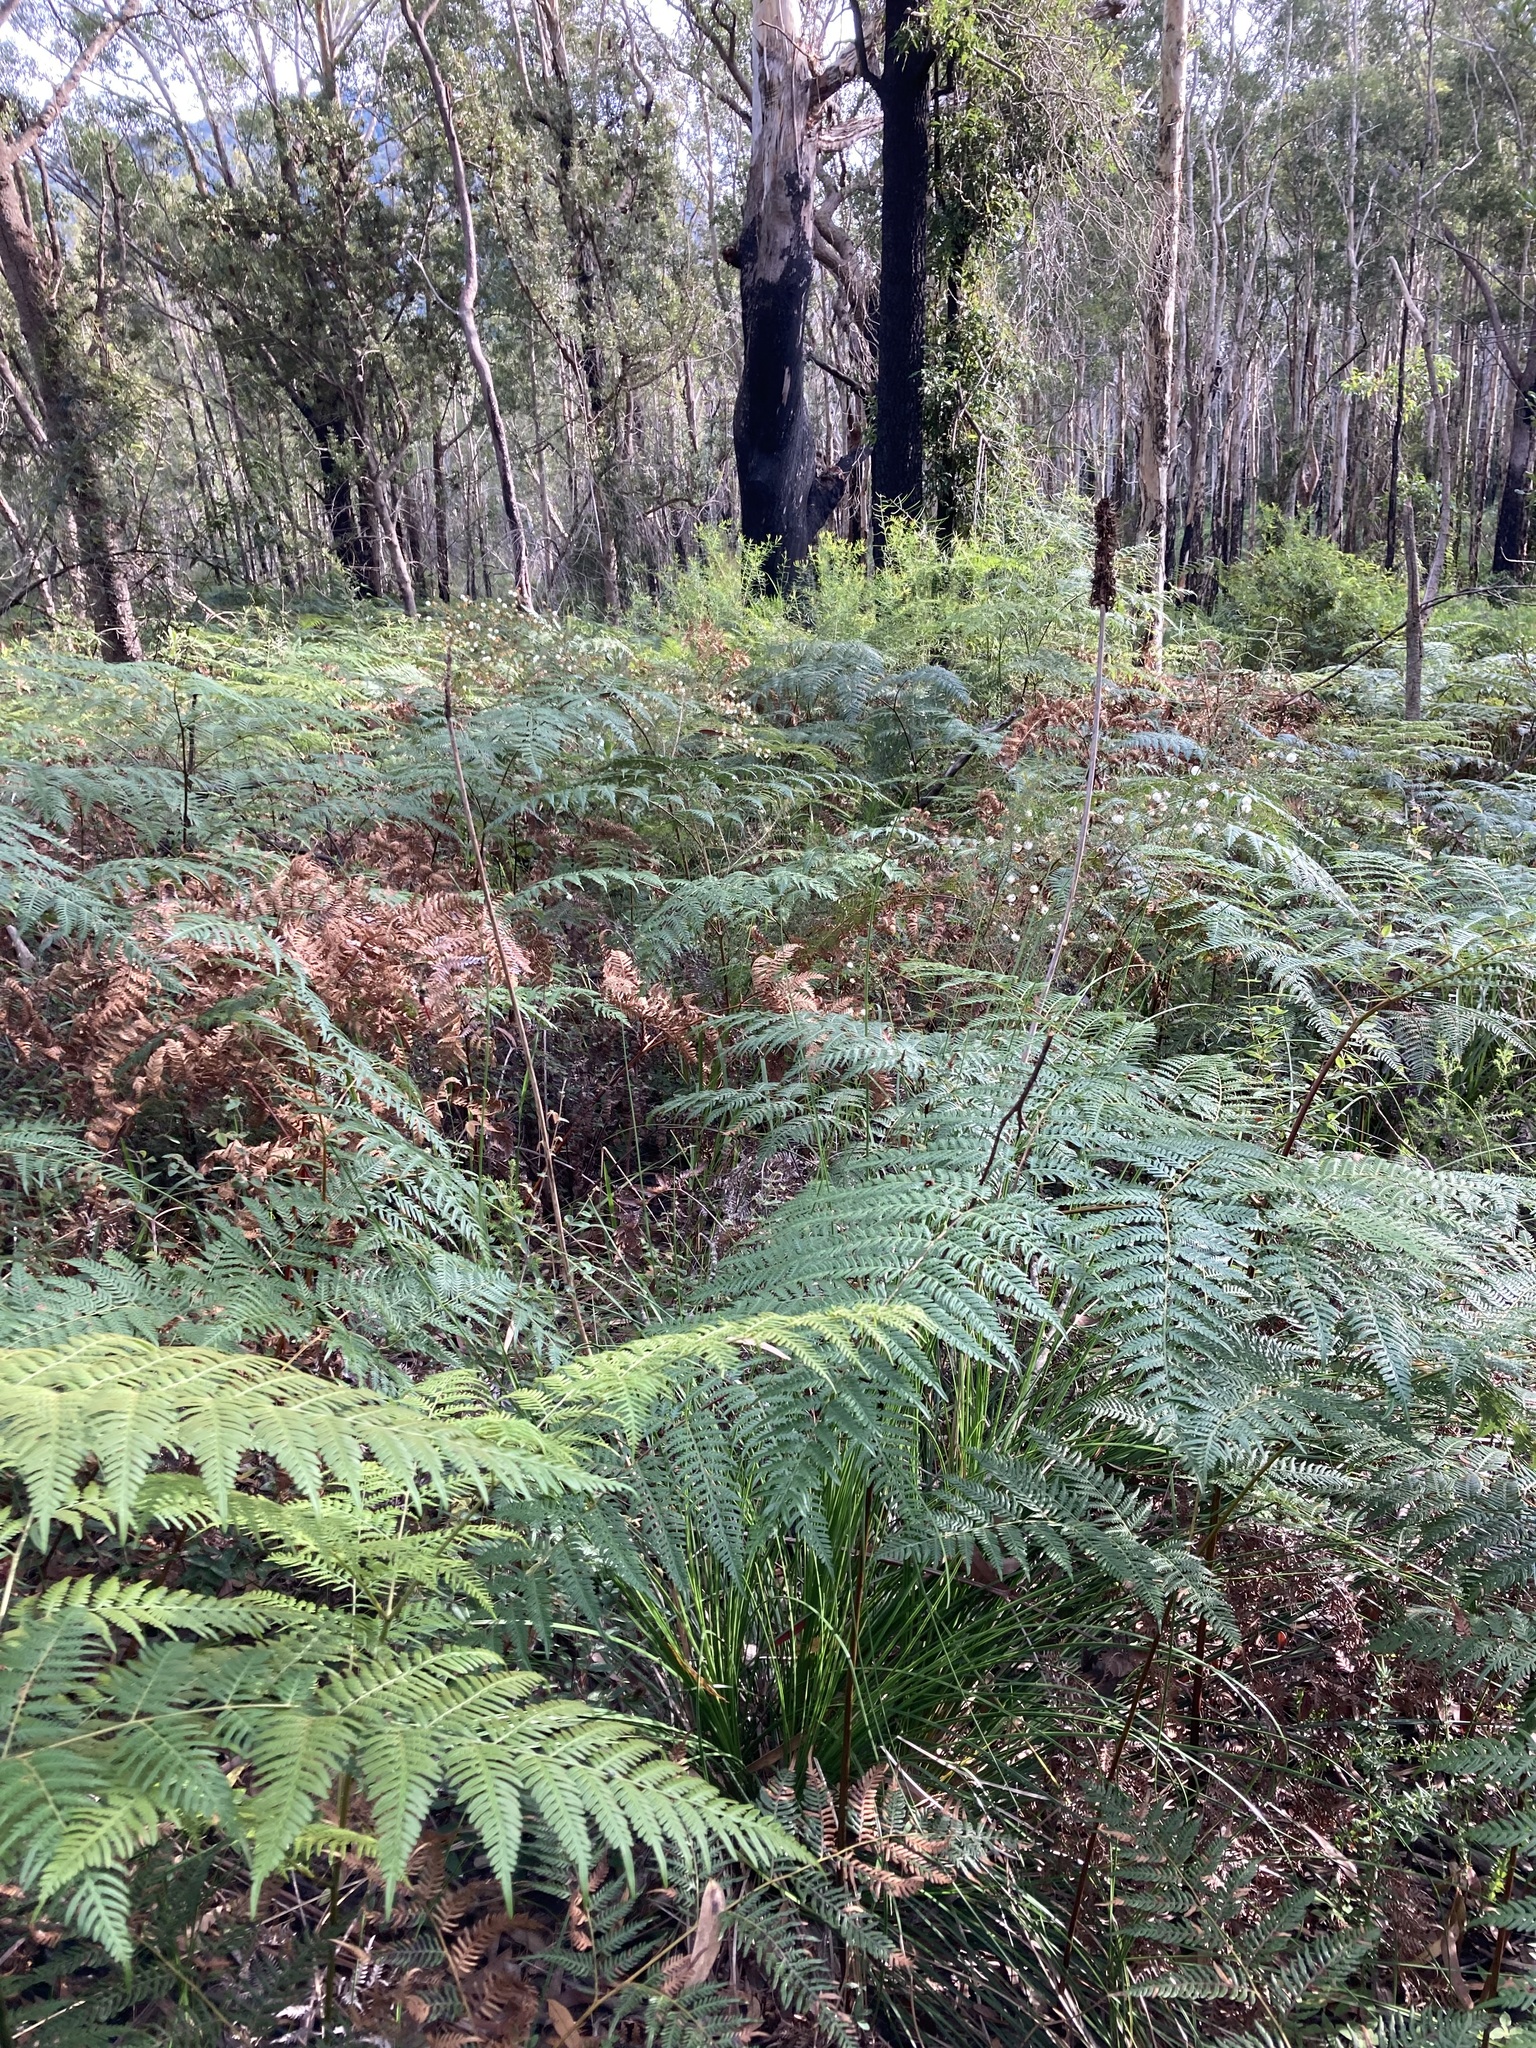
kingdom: Plantae
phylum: Tracheophyta
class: Liliopsida
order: Asparagales
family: Asphodelaceae
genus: Xanthorrhoea
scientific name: Xanthorrhoea macronema
